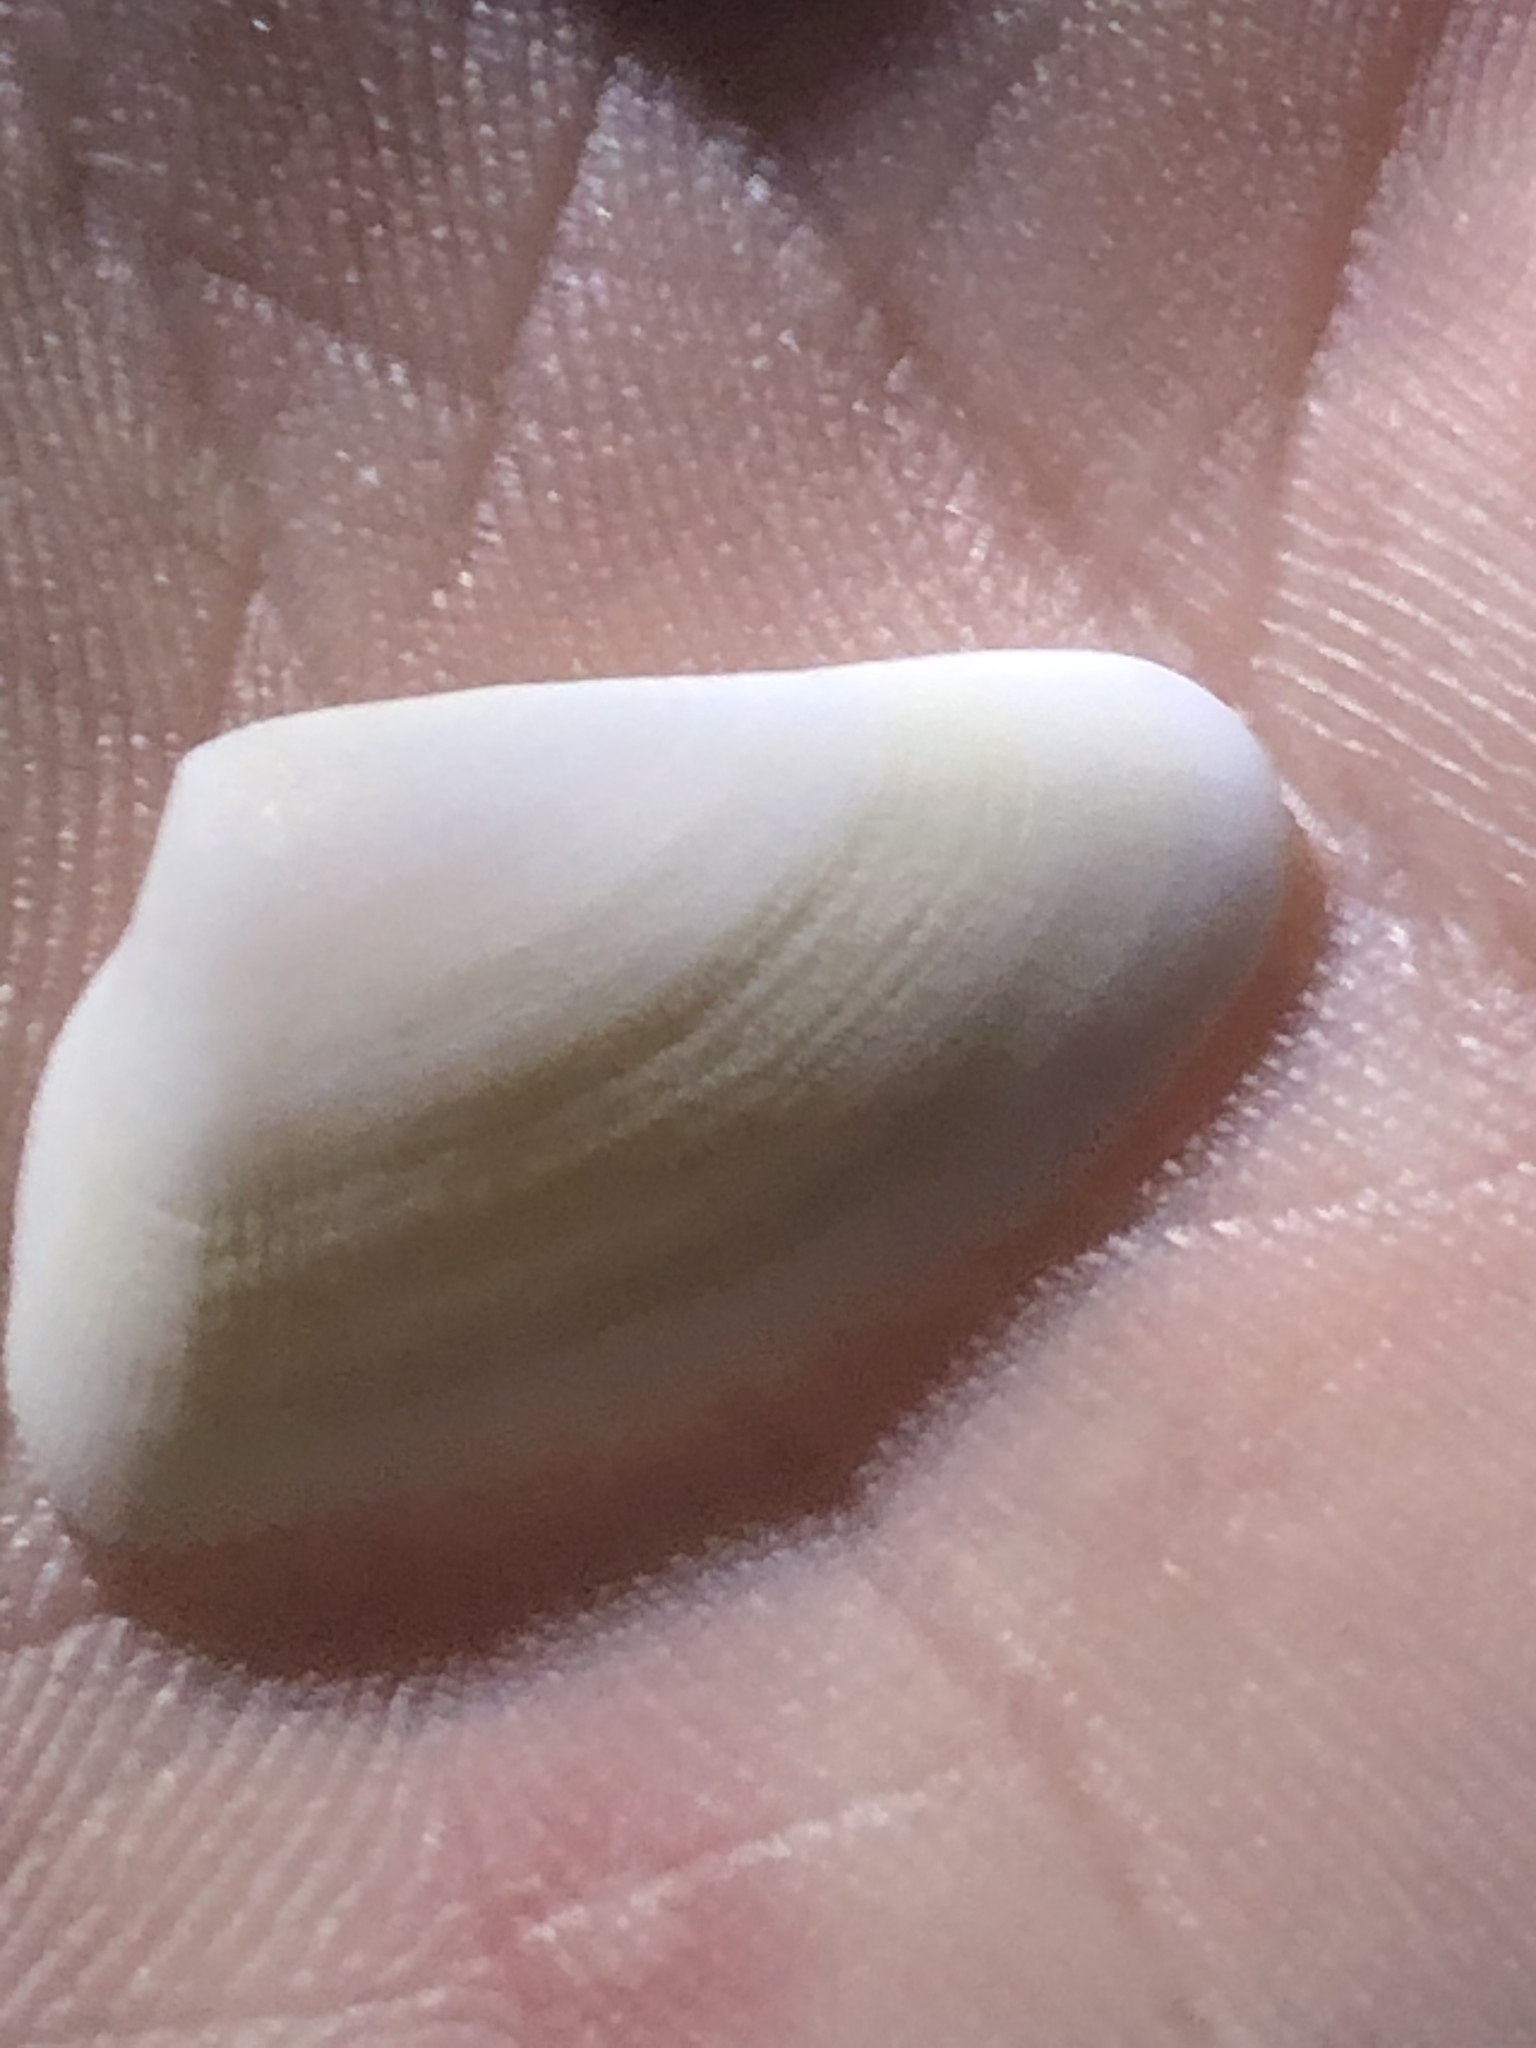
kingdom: Animalia
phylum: Mollusca
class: Bivalvia
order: Cardiida
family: Donacidae
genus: Donax
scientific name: Donax variabilis
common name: Butterfly shell
